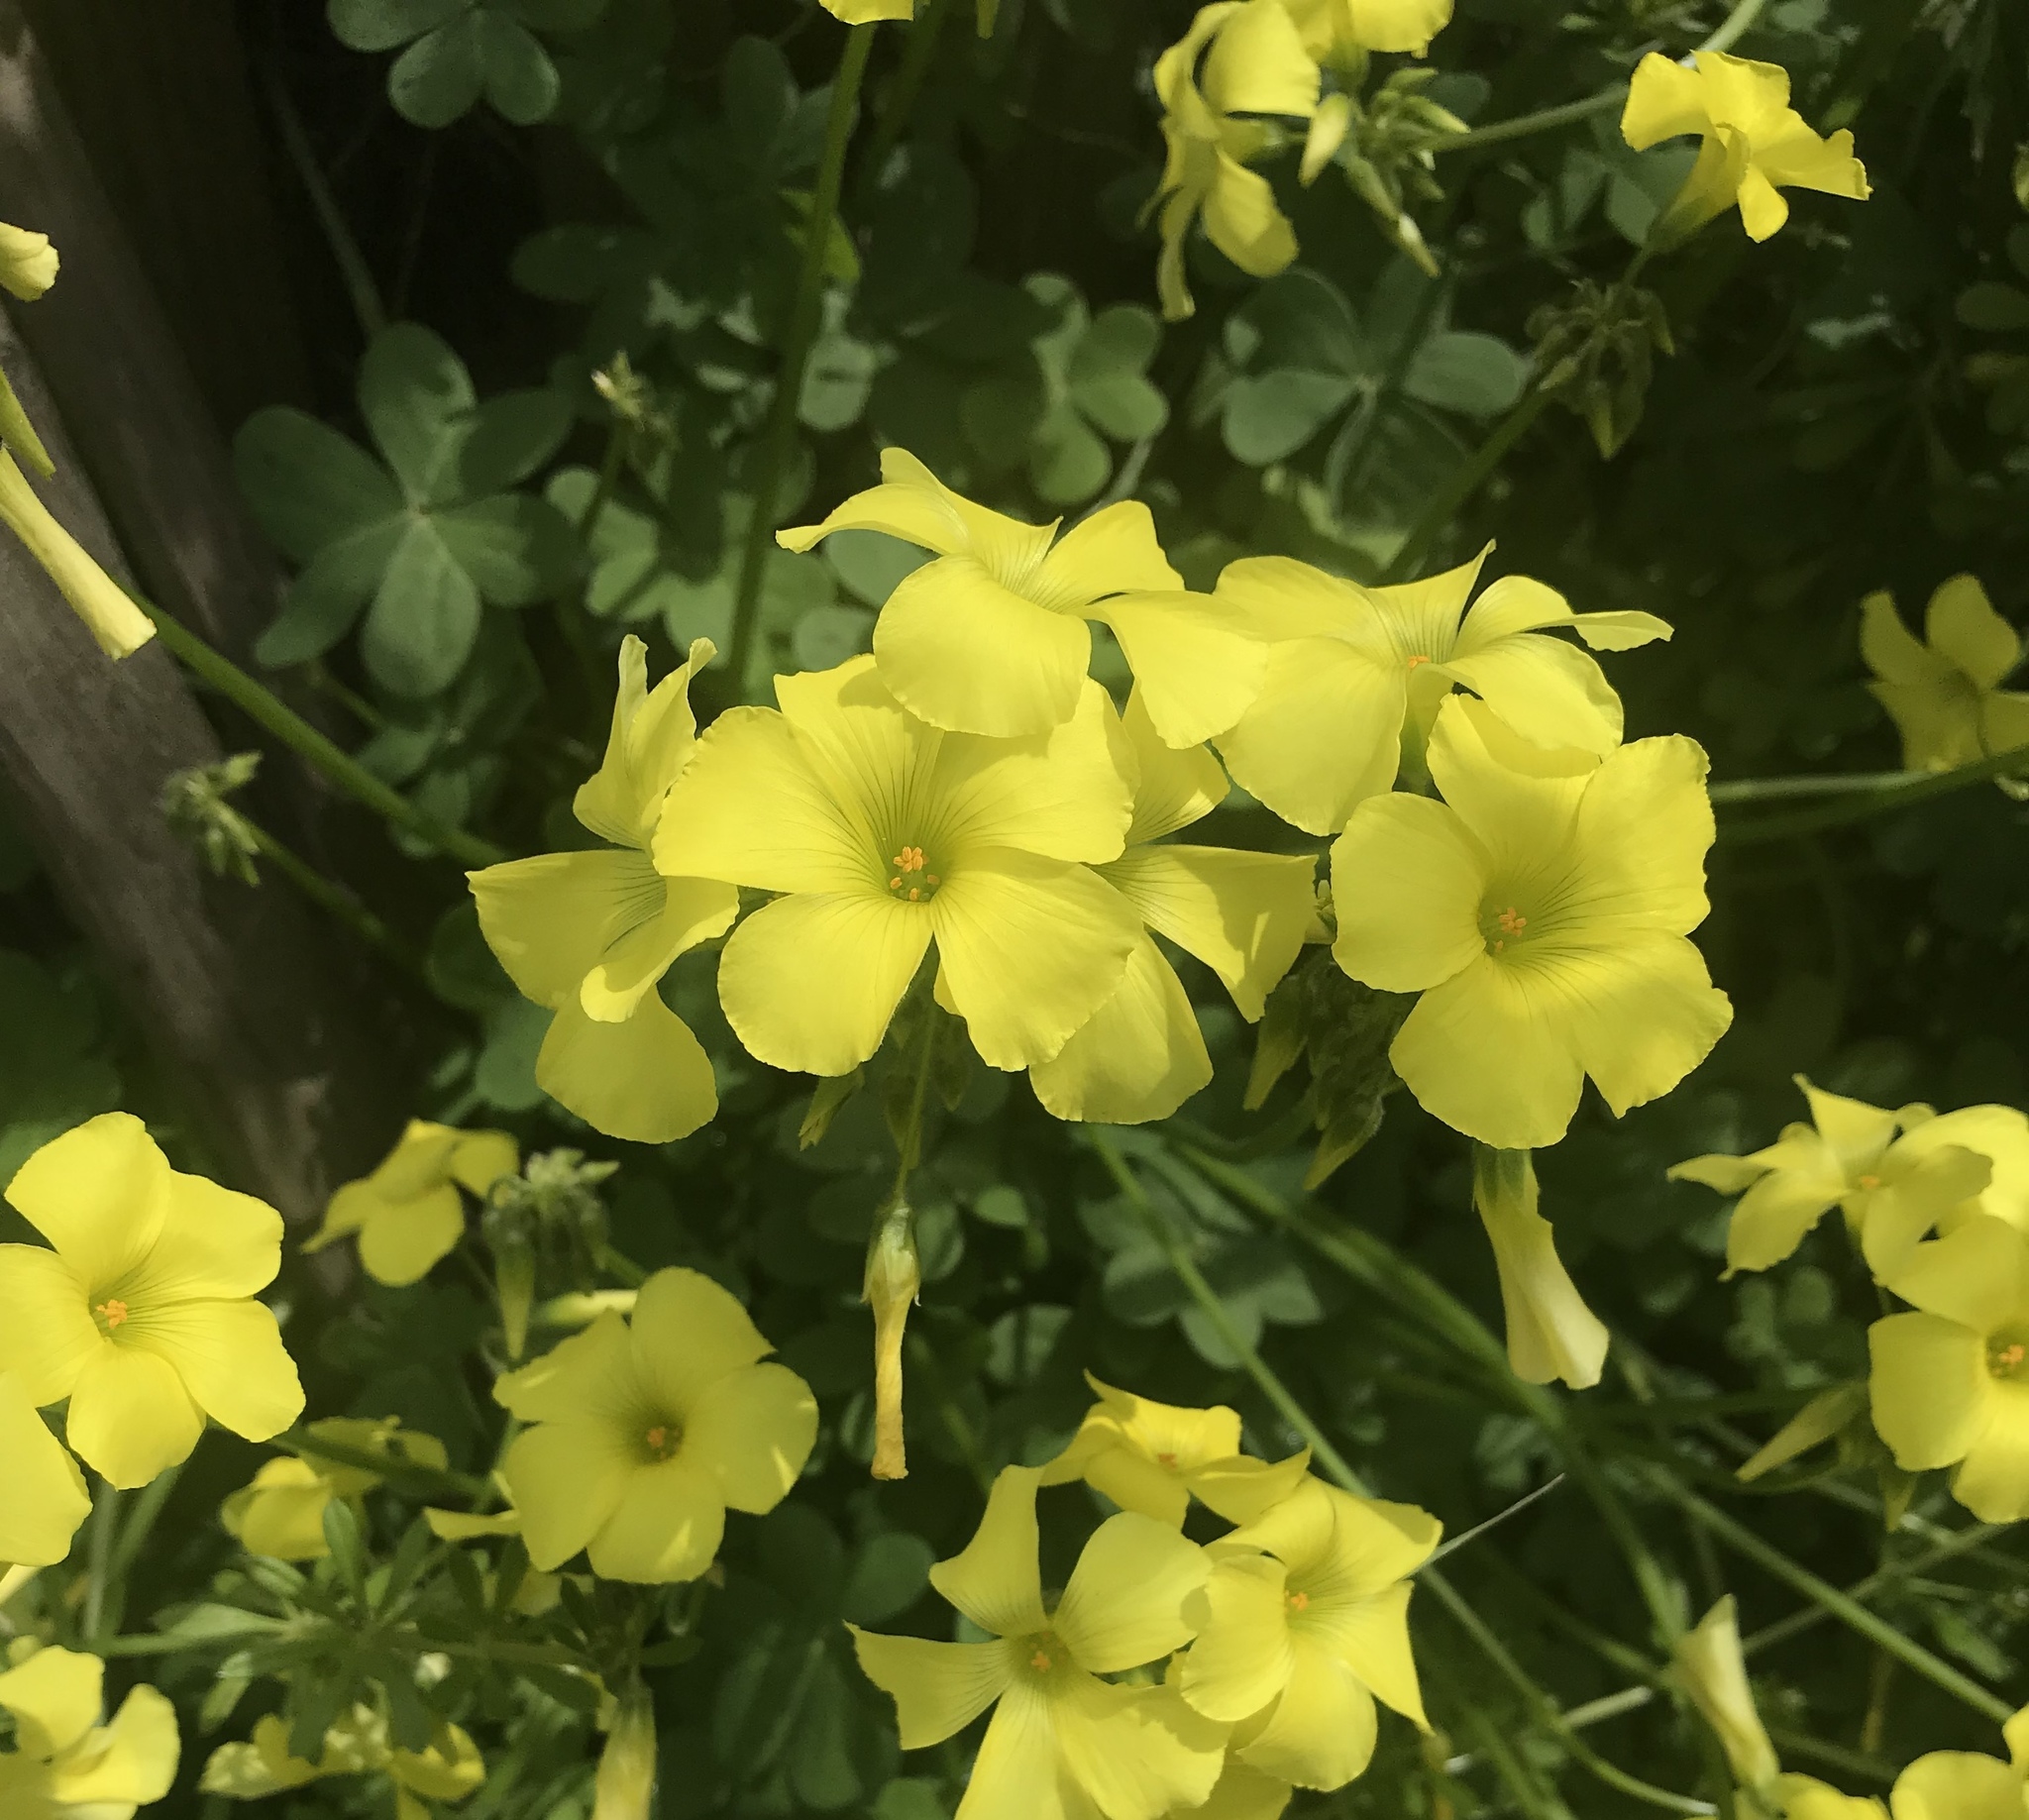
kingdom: Plantae
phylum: Tracheophyta
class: Magnoliopsida
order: Oxalidales
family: Oxalidaceae
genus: Oxalis
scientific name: Oxalis pes-caprae
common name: Bermuda-buttercup
